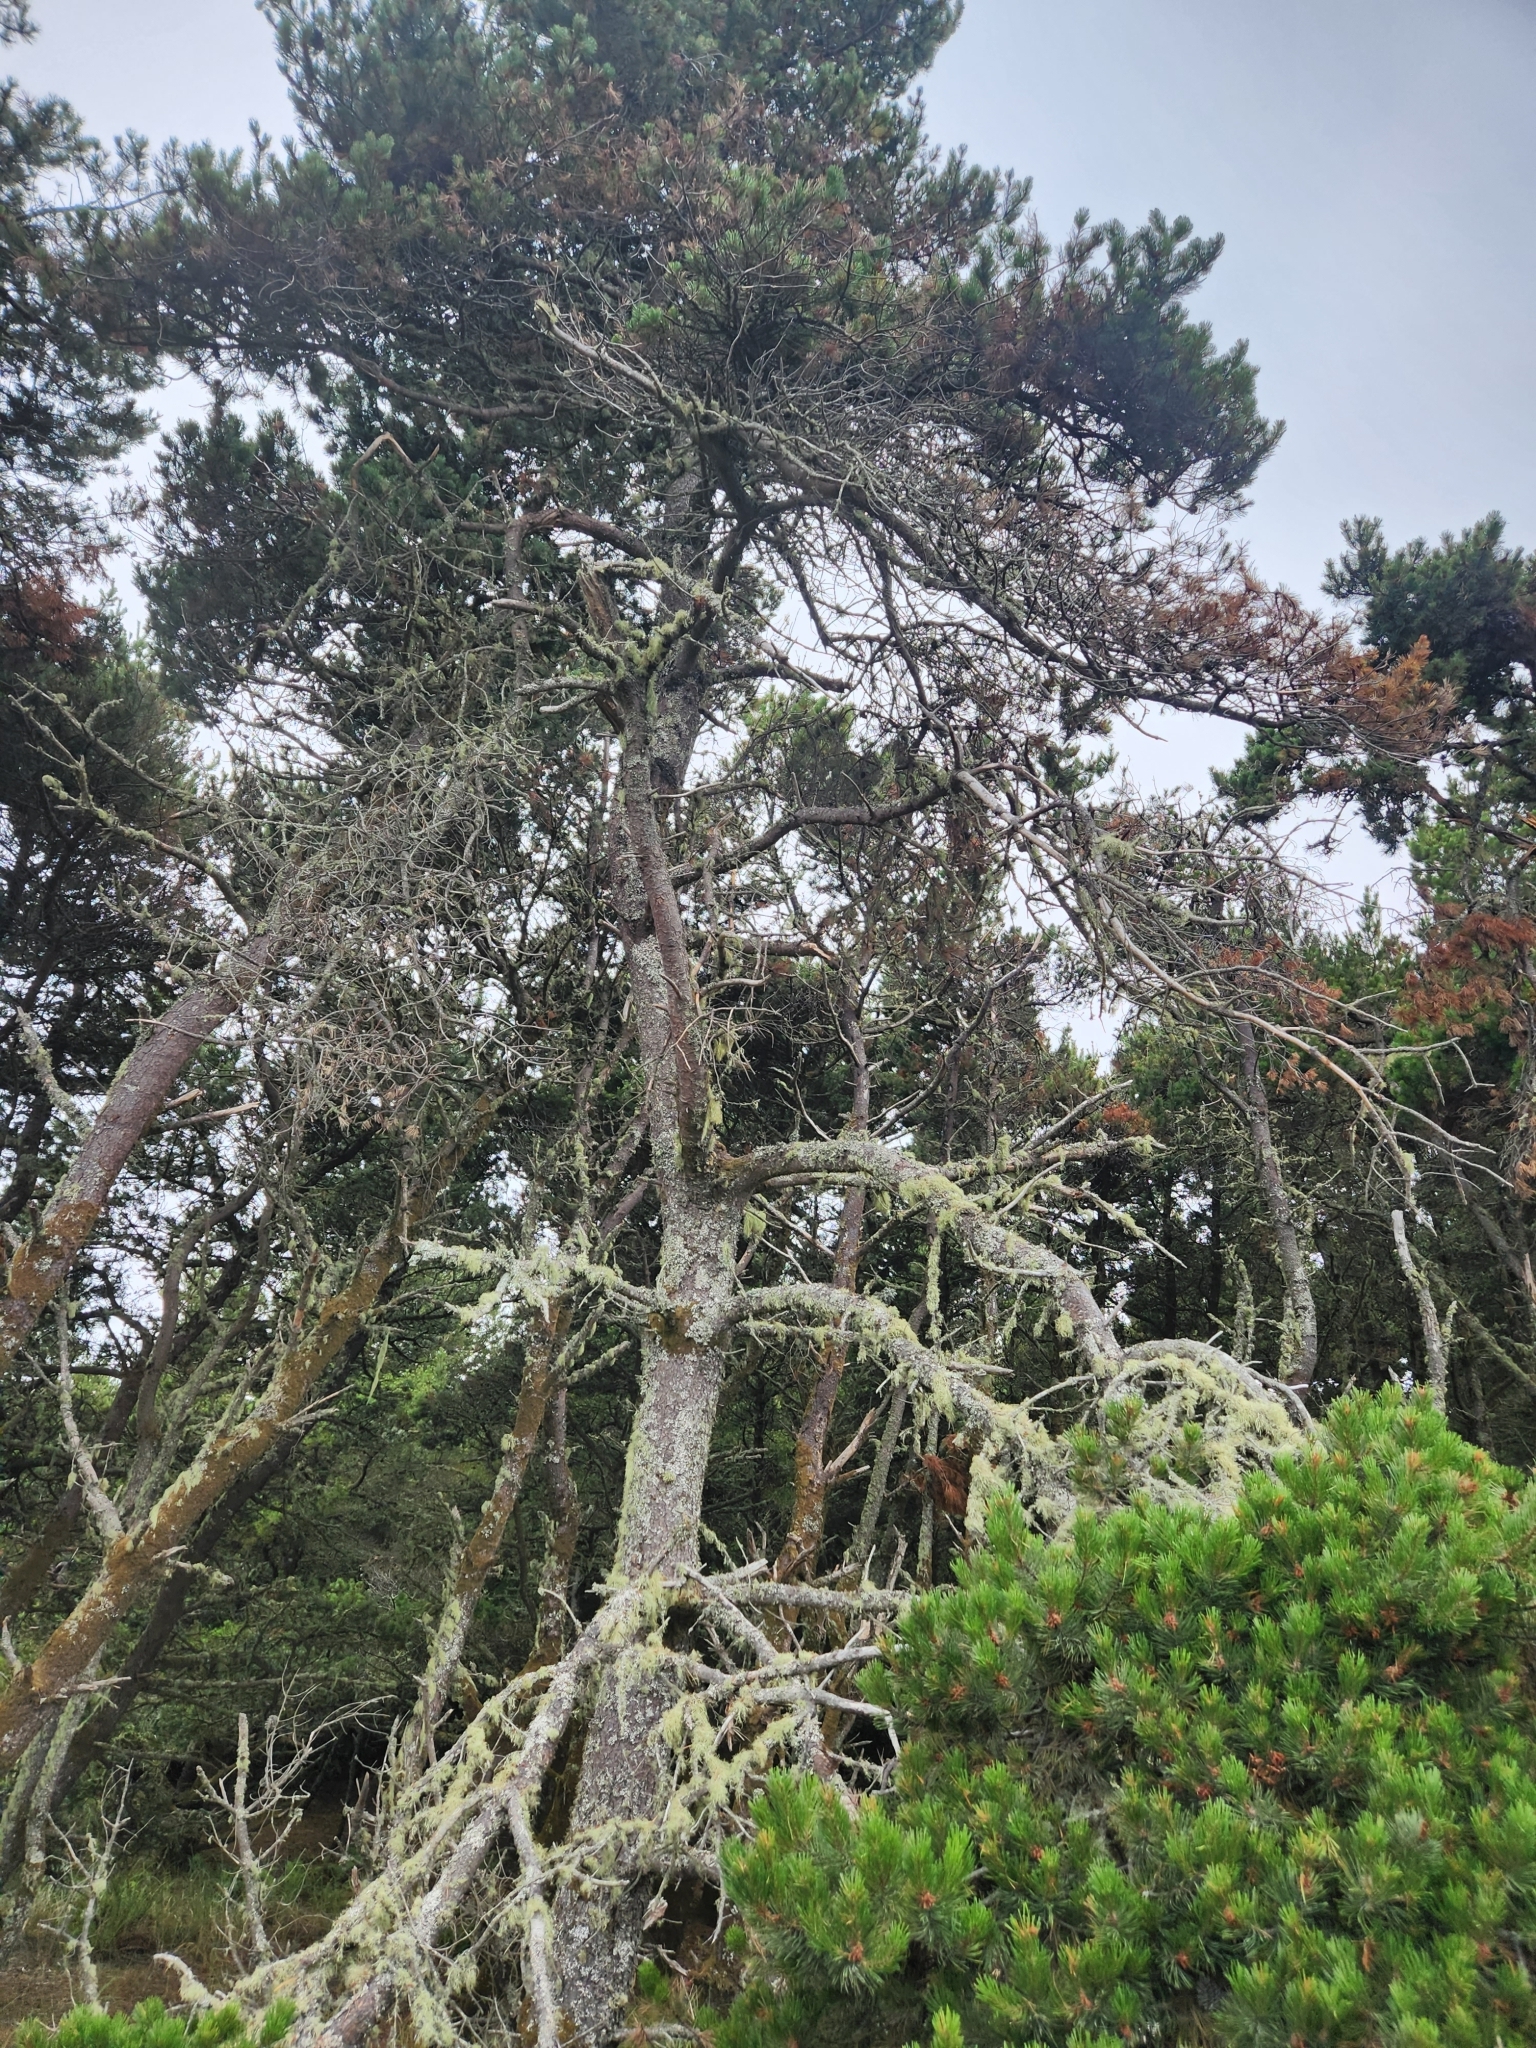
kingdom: Plantae
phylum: Tracheophyta
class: Pinopsida
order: Pinales
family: Pinaceae
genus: Pinus
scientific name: Pinus contorta
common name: Lodgepole pine
